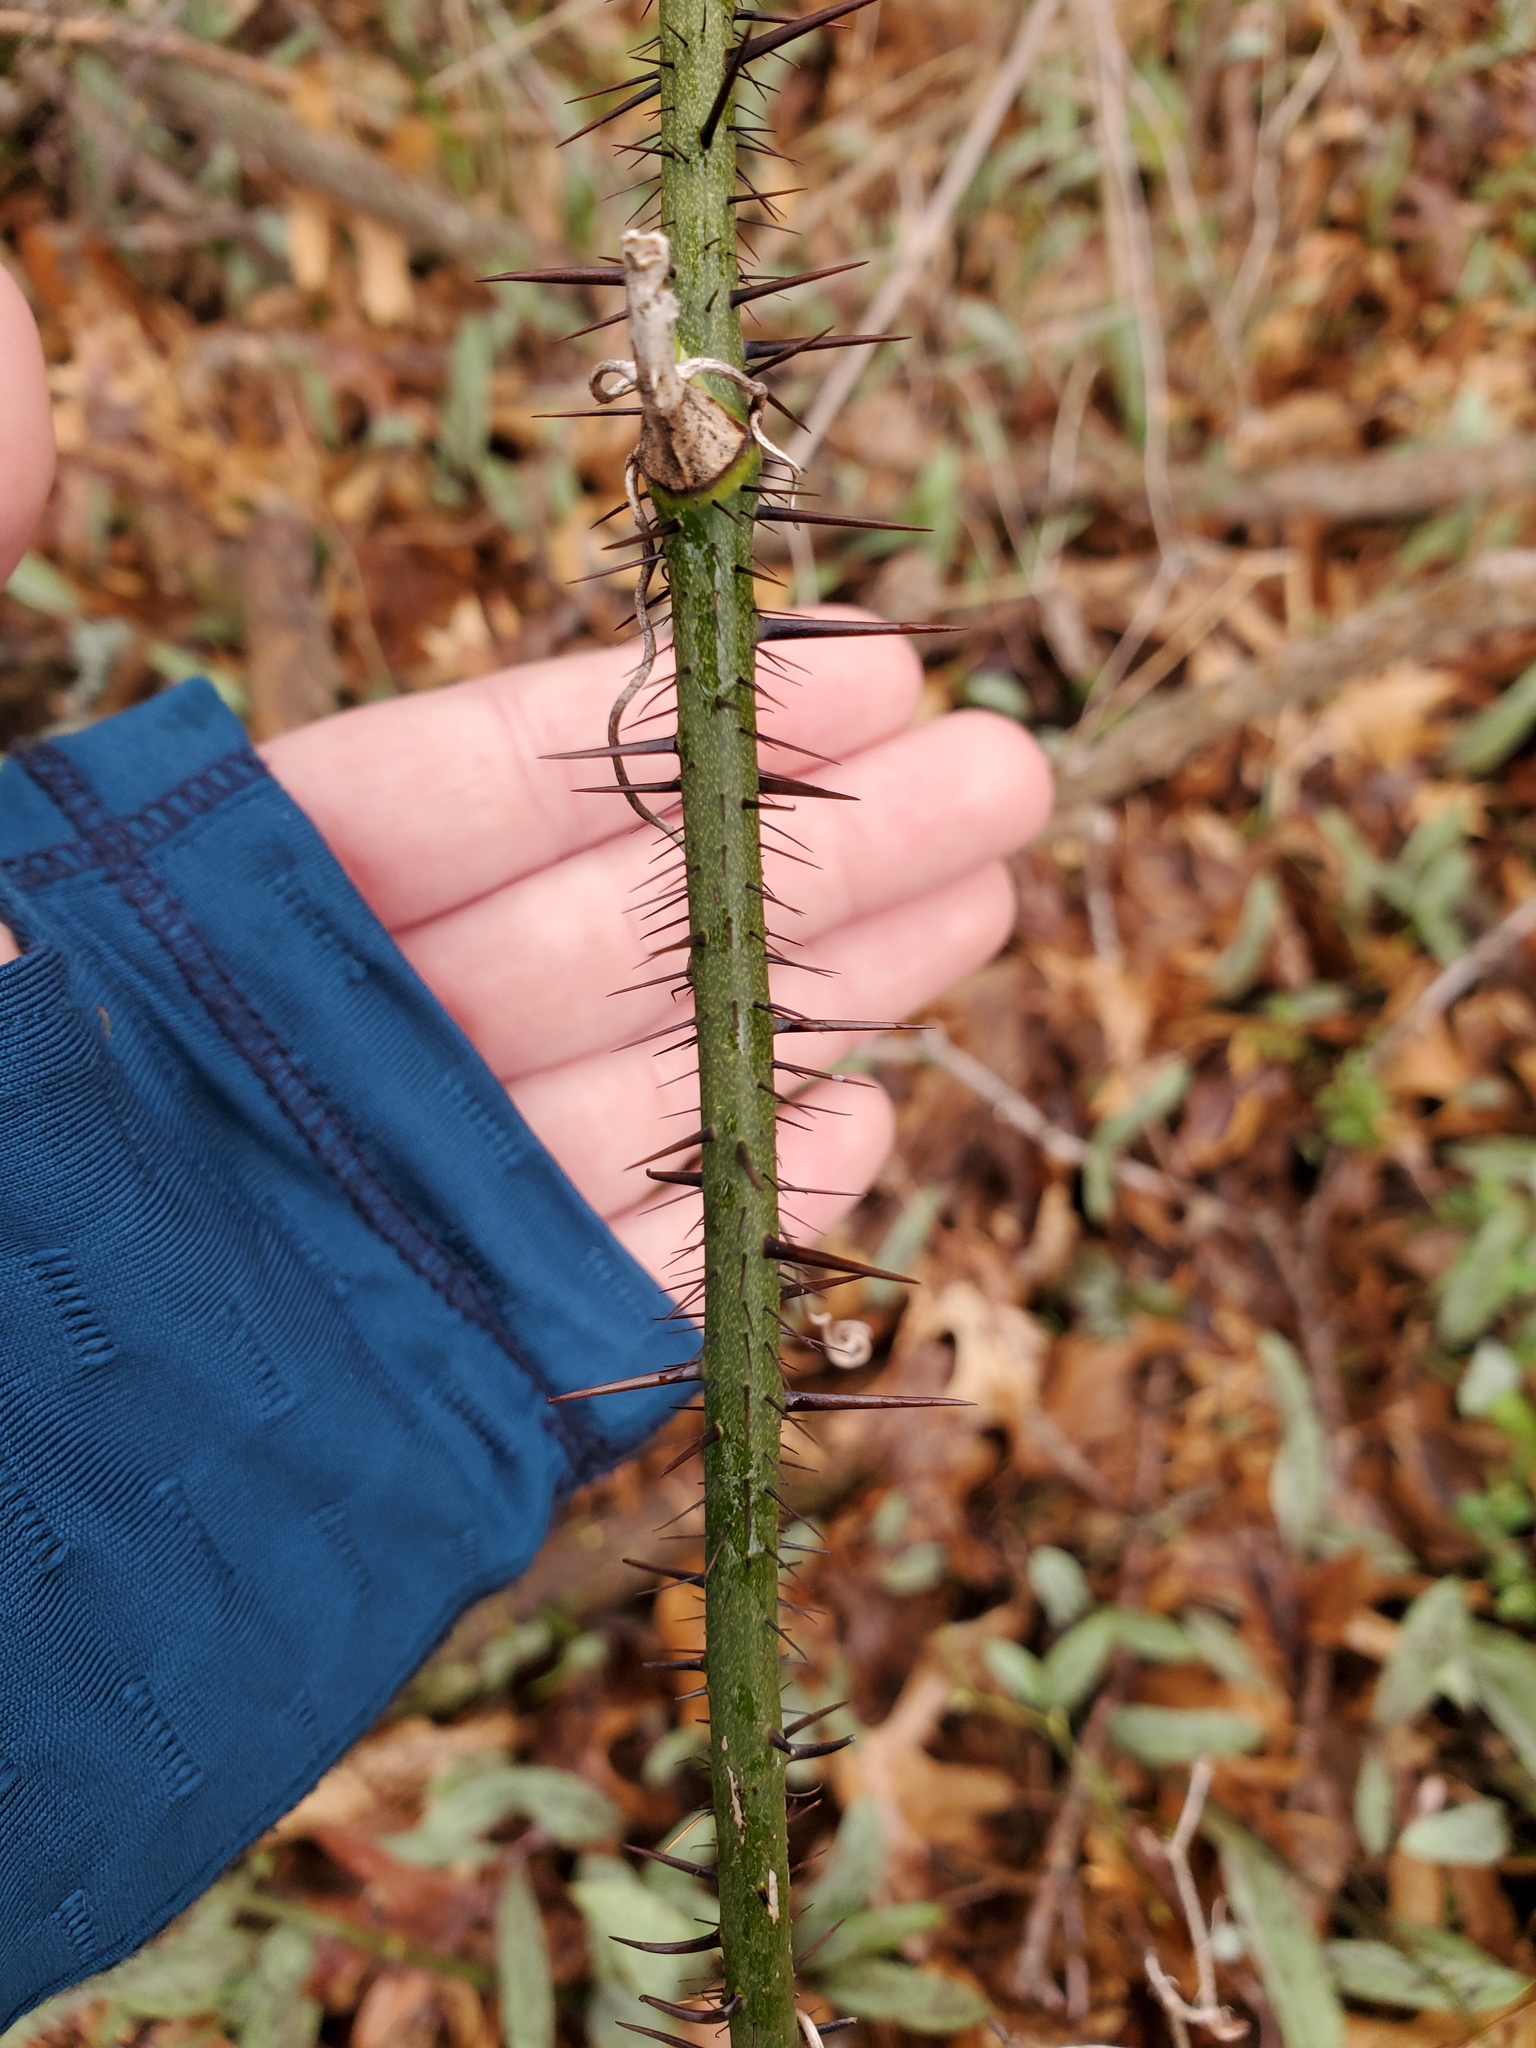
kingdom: Plantae
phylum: Tracheophyta
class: Liliopsida
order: Liliales
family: Smilacaceae
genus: Smilax
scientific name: Smilax tamnoides
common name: Hellfetter
